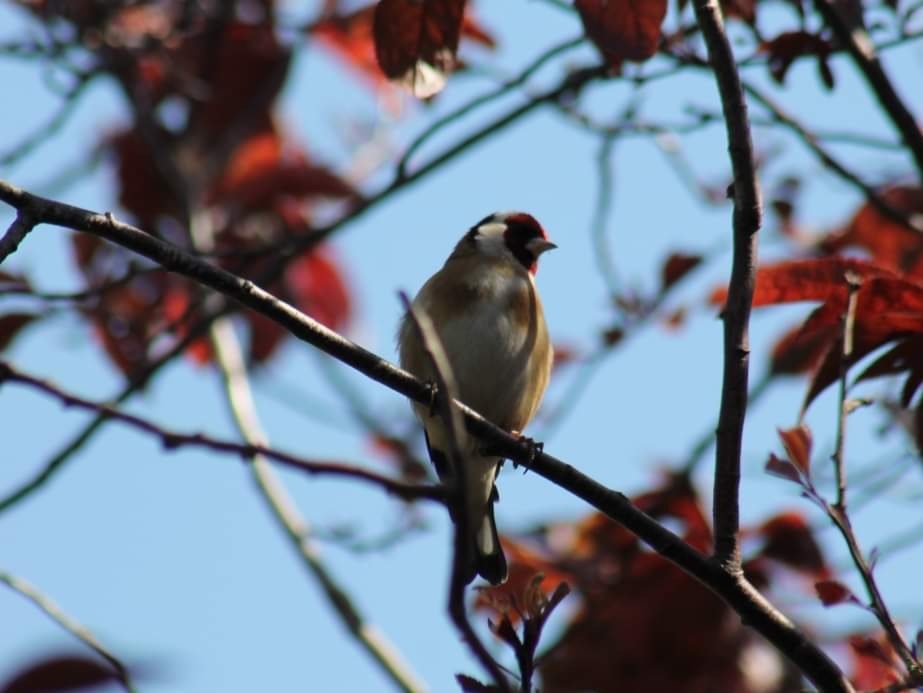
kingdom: Animalia
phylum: Chordata
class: Aves
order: Passeriformes
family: Fringillidae
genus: Carduelis
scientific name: Carduelis carduelis
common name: European goldfinch
